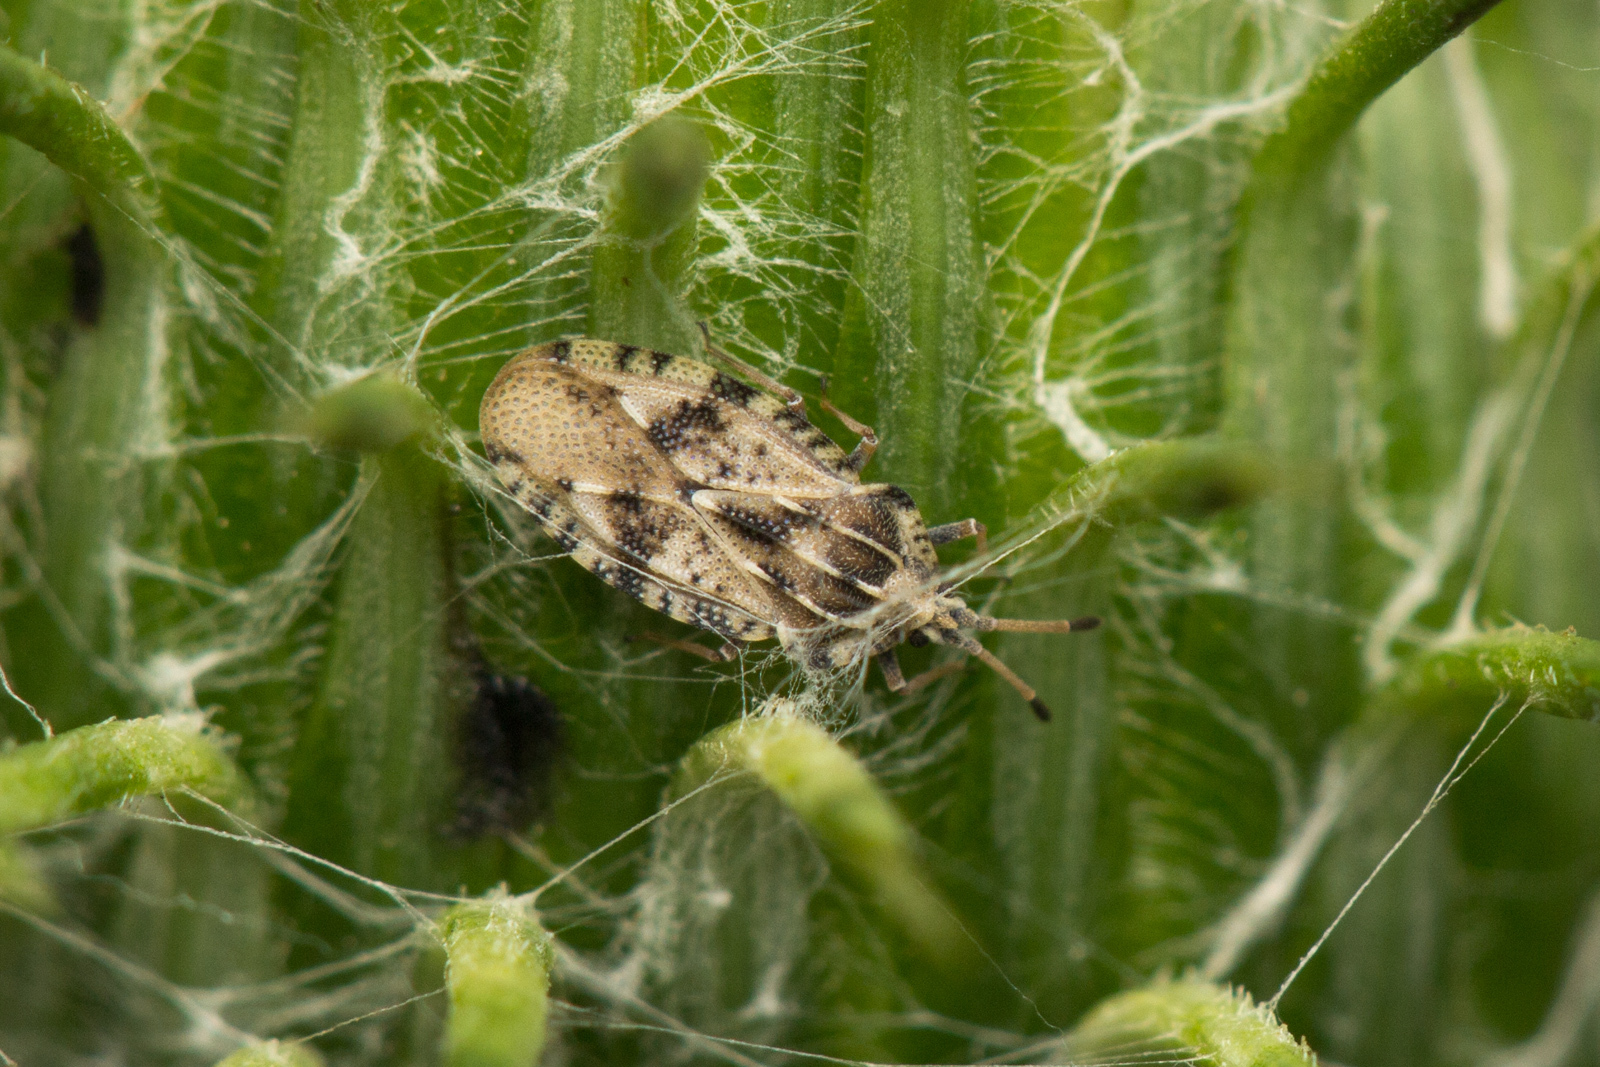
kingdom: Animalia
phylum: Arthropoda
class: Insecta
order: Hemiptera
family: Tingidae
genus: Tingis
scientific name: Tingis cardui
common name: Spear thistle lacebug
